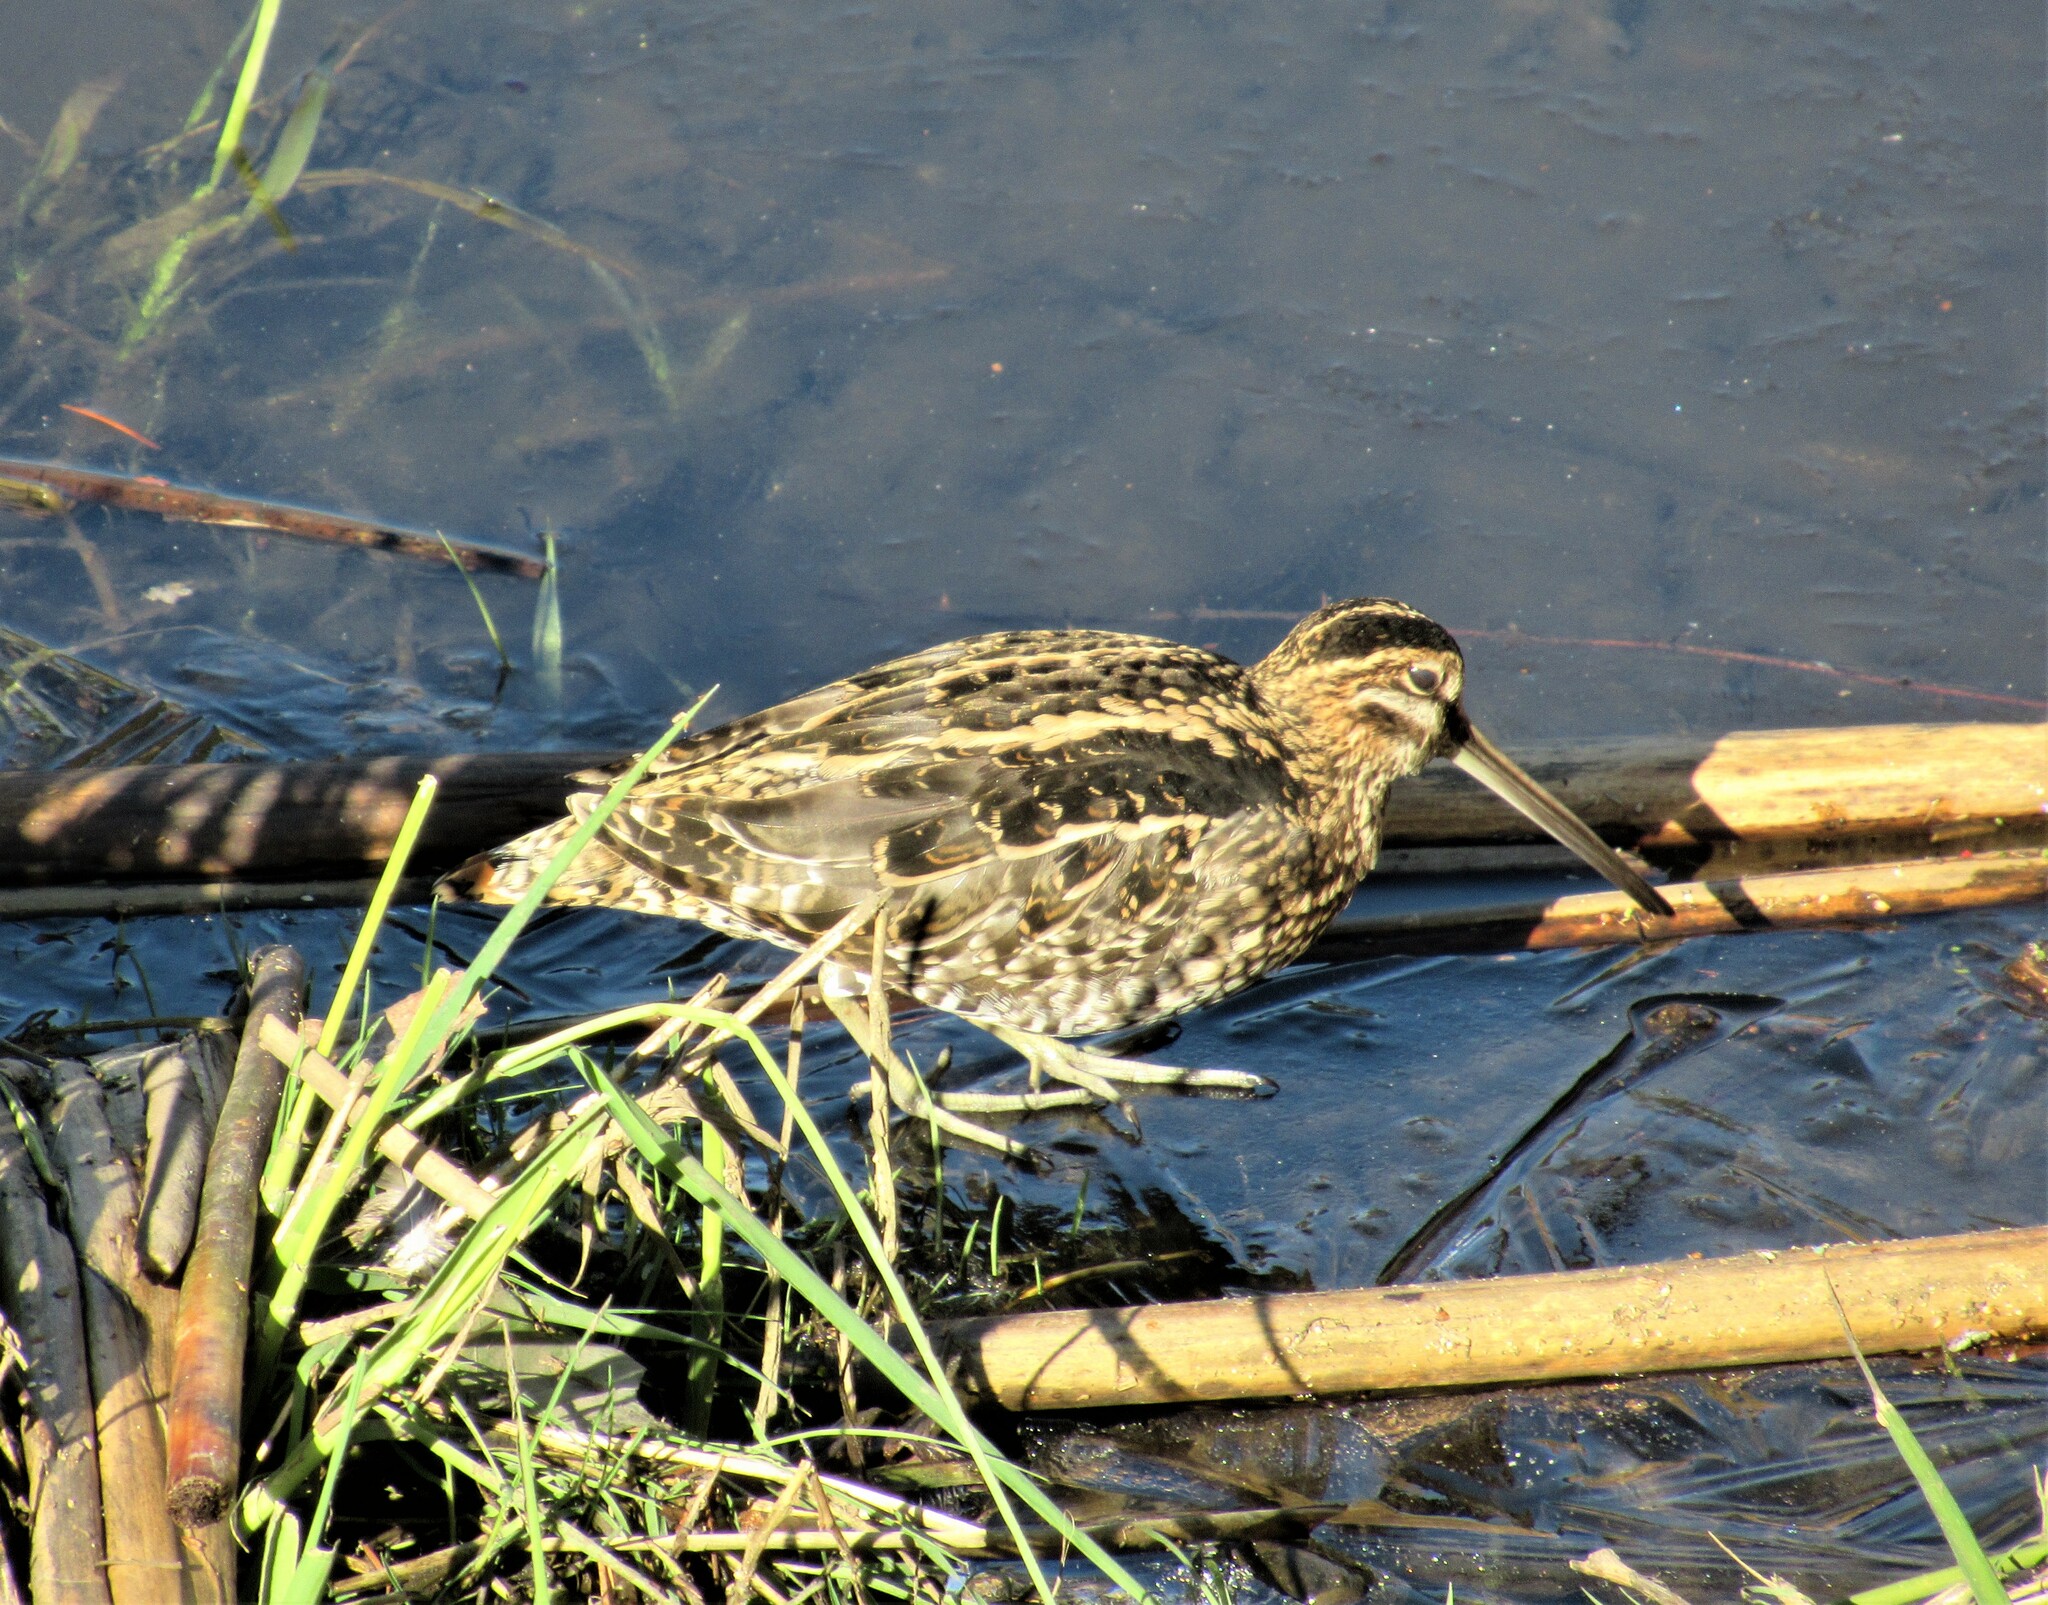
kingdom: Animalia
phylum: Chordata
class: Aves
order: Charadriiformes
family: Scolopacidae
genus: Gallinago
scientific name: Gallinago delicata
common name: Wilson's snipe
